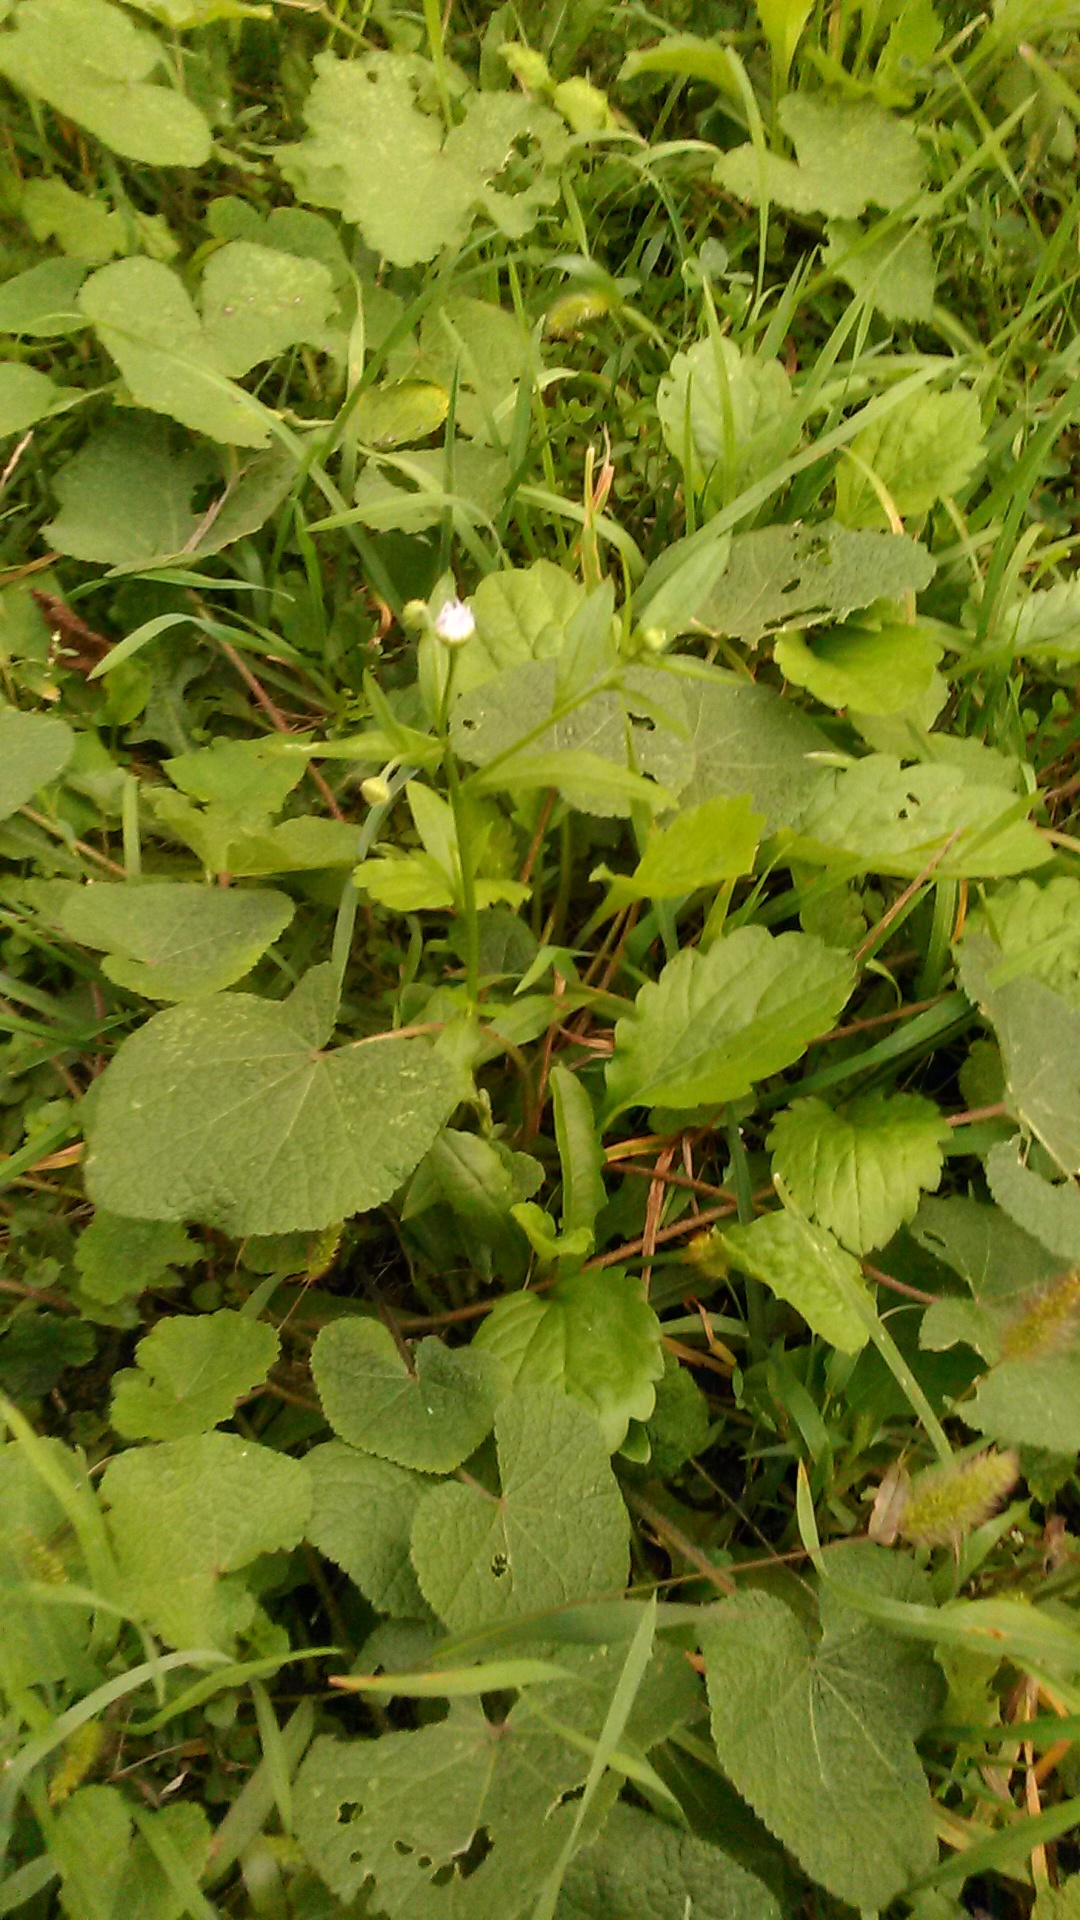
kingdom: Plantae
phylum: Tracheophyta
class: Magnoliopsida
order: Asterales
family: Asteraceae
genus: Erigeron
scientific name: Erigeron annuus
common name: Tall fleabane
